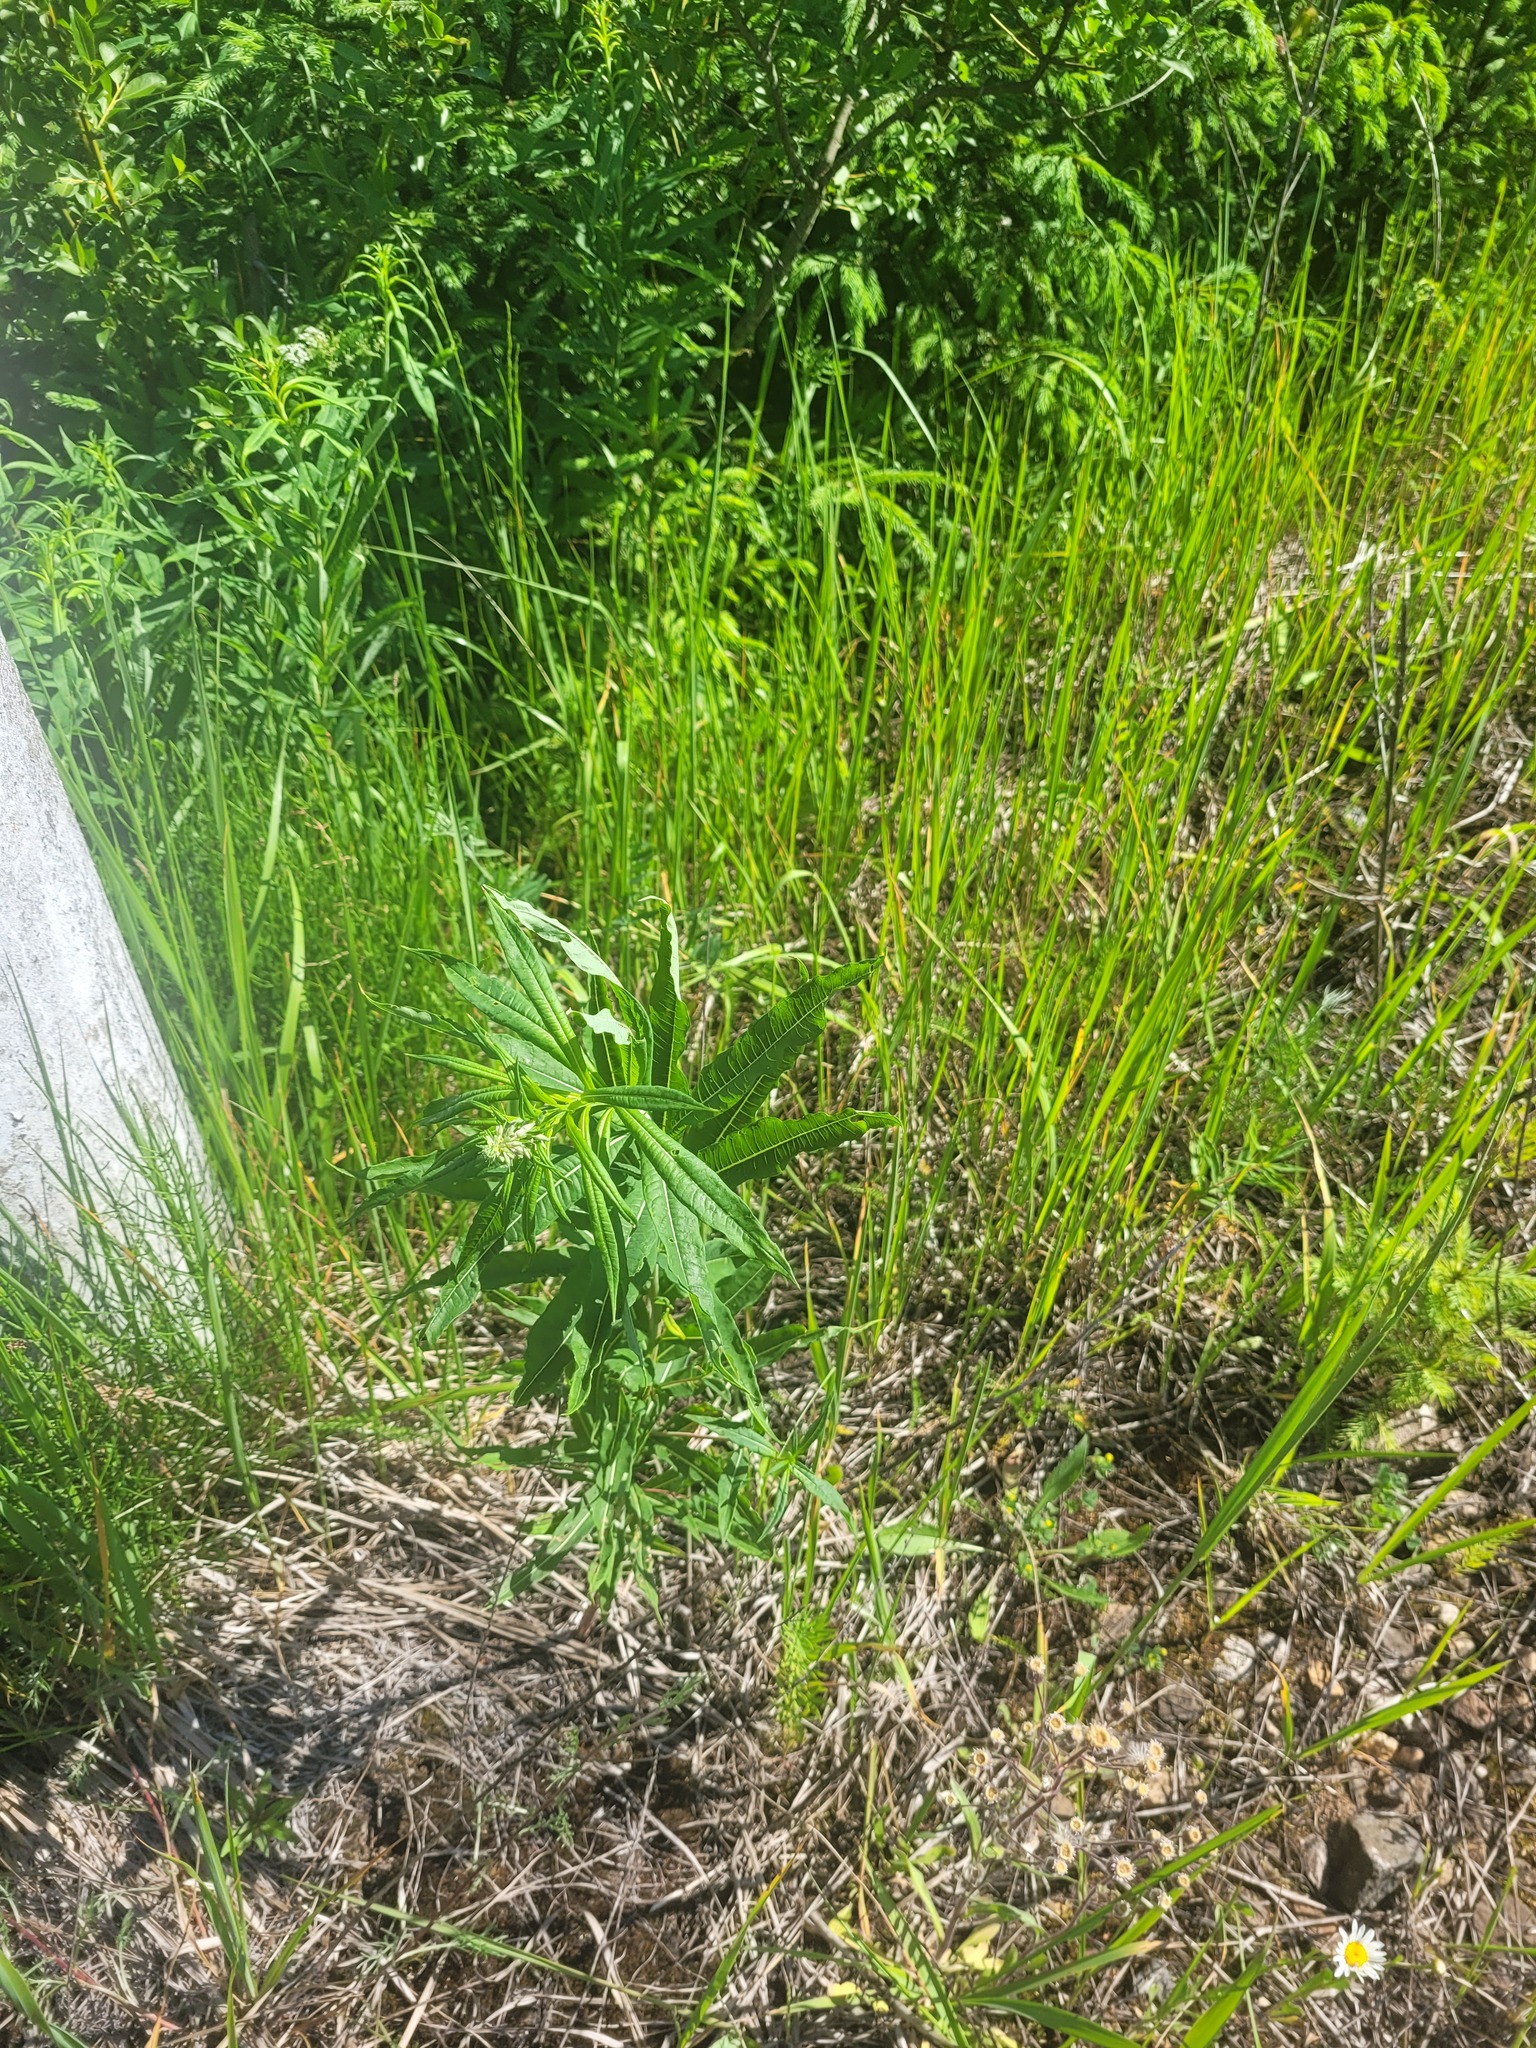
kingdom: Plantae
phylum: Tracheophyta
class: Magnoliopsida
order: Myrtales
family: Onagraceae
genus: Chamaenerion
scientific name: Chamaenerion angustifolium
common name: Fireweed
